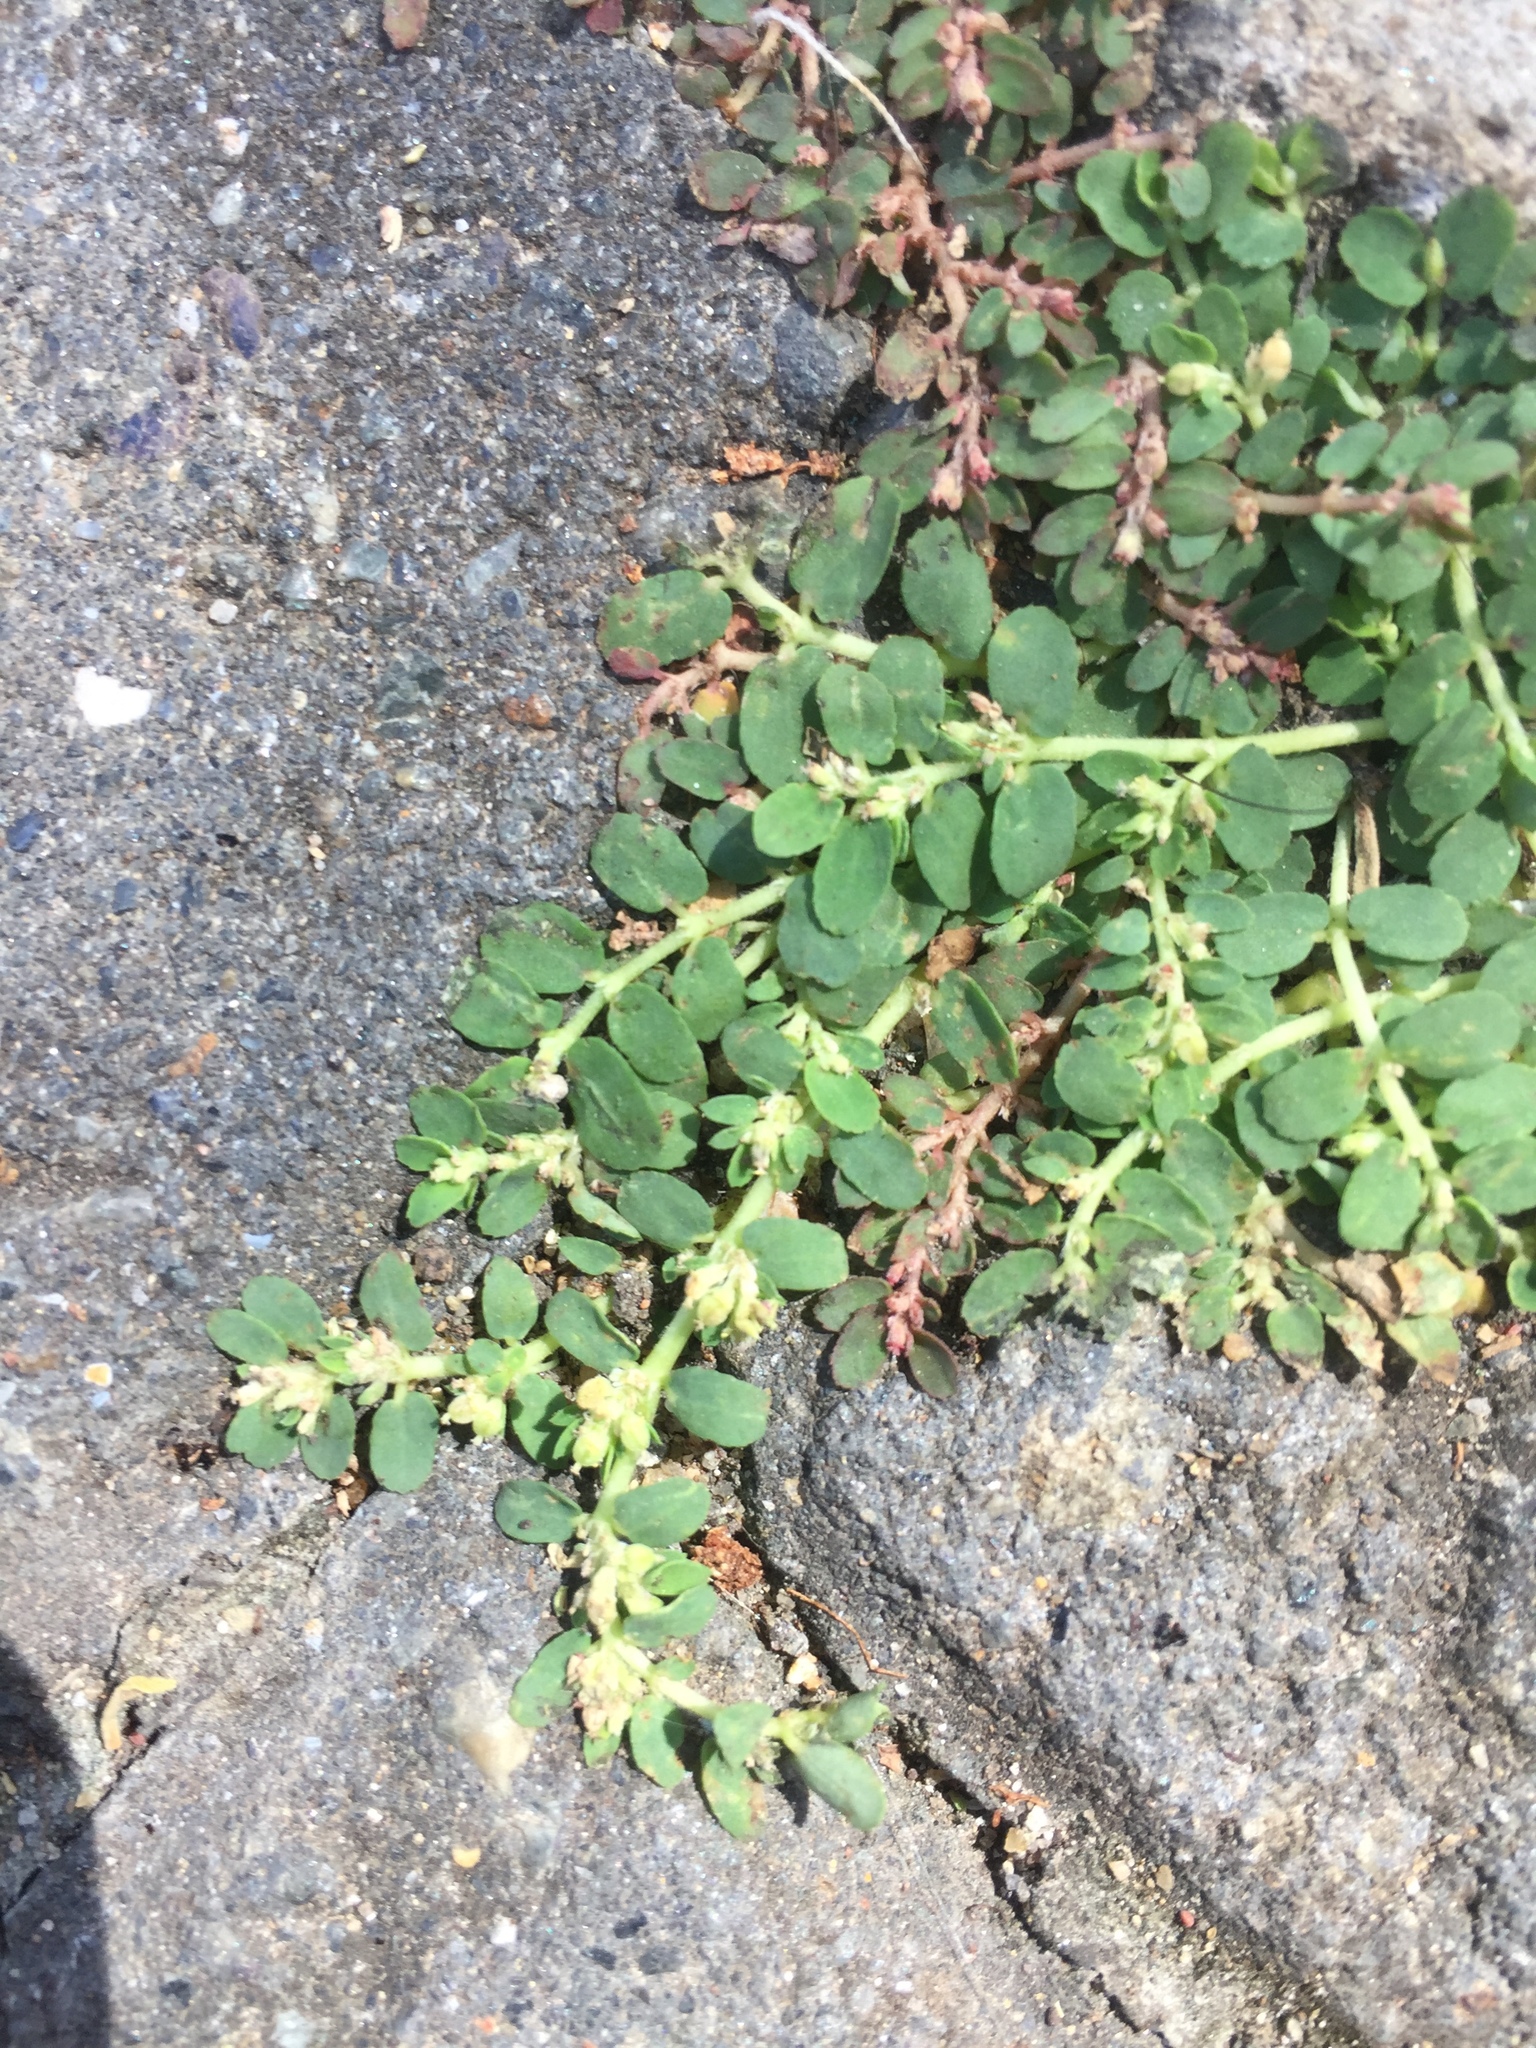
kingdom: Plantae
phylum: Tracheophyta
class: Magnoliopsida
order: Malpighiales
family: Euphorbiaceae
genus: Euphorbia
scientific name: Euphorbia thymifolia
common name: Gulf sandmat
